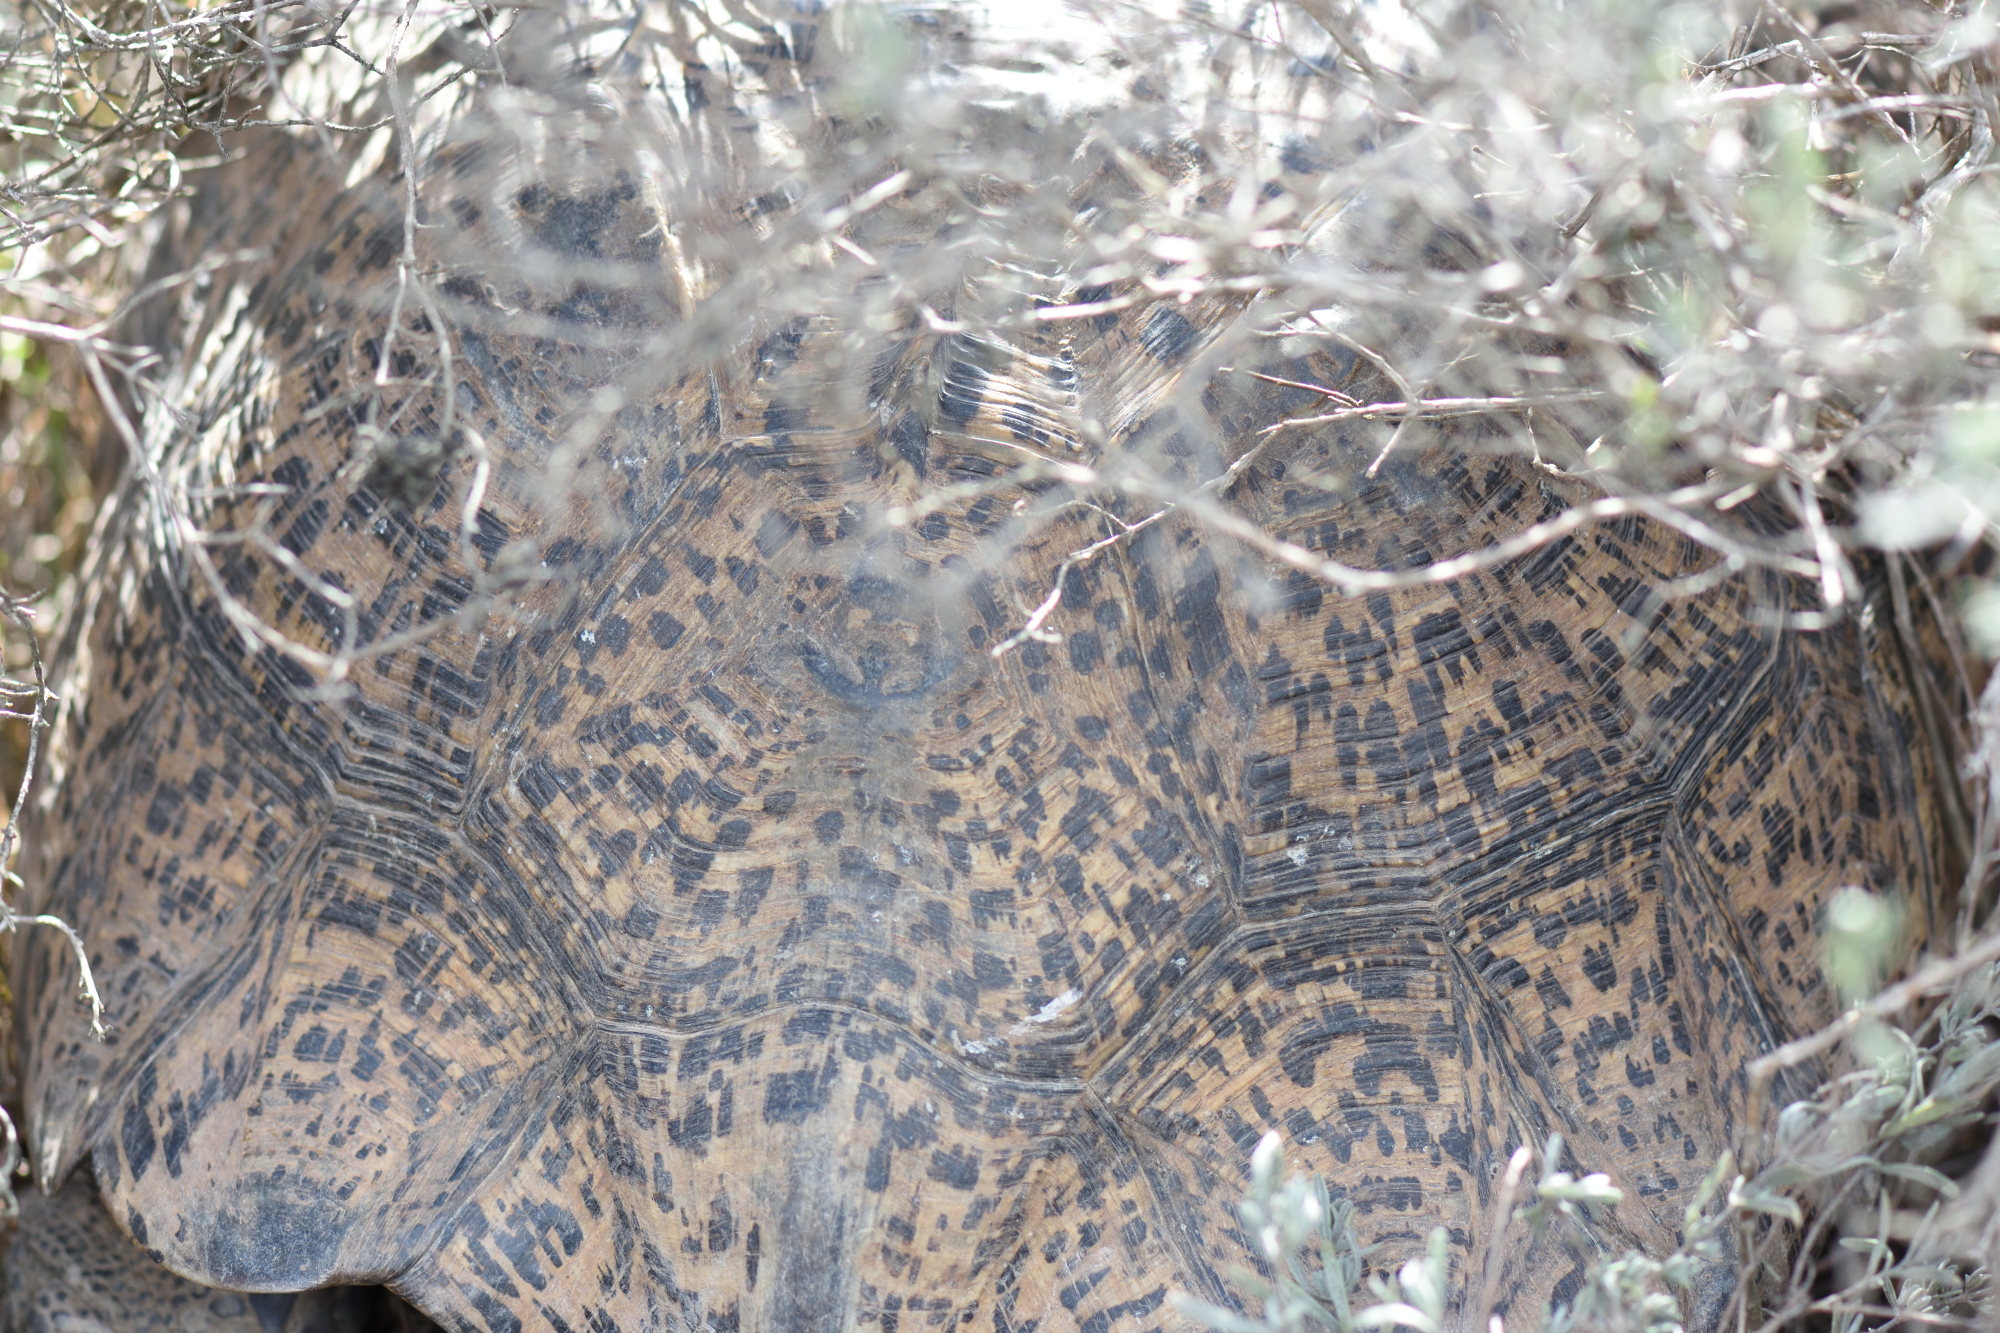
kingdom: Animalia
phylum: Chordata
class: Testudines
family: Testudinidae
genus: Stigmochelys
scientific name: Stigmochelys pardalis
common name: Leopard tortoise
